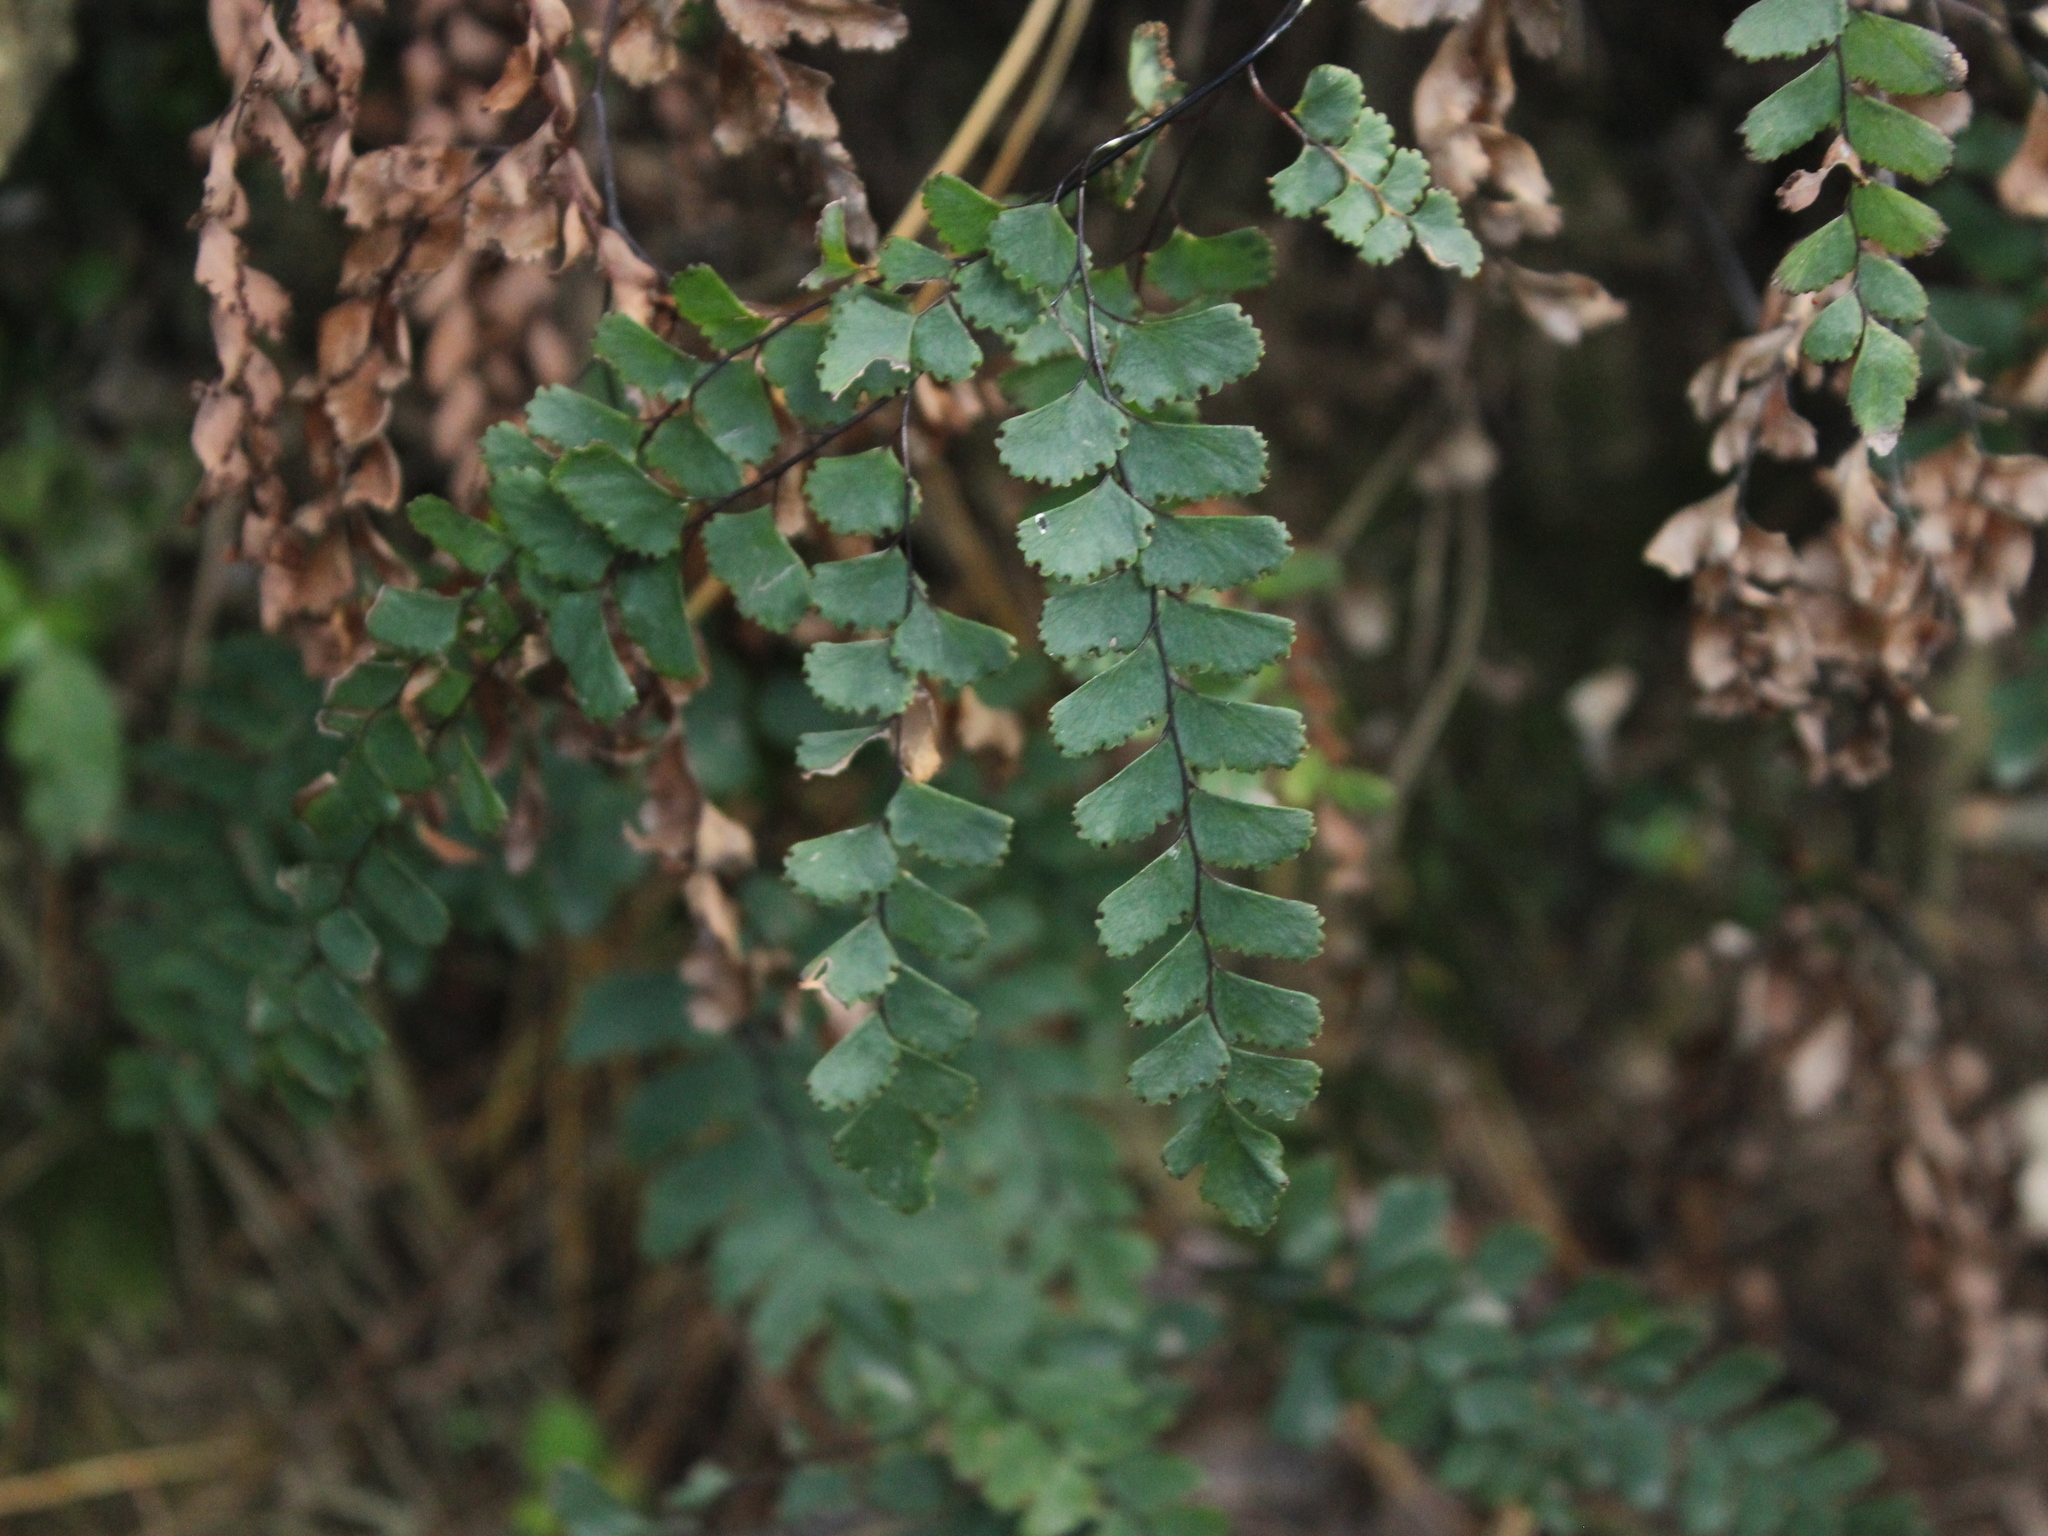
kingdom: Plantae
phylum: Tracheophyta
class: Polypodiopsida
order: Polypodiales
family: Pteridaceae
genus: Adiantum
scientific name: Adiantum cunninghamii
